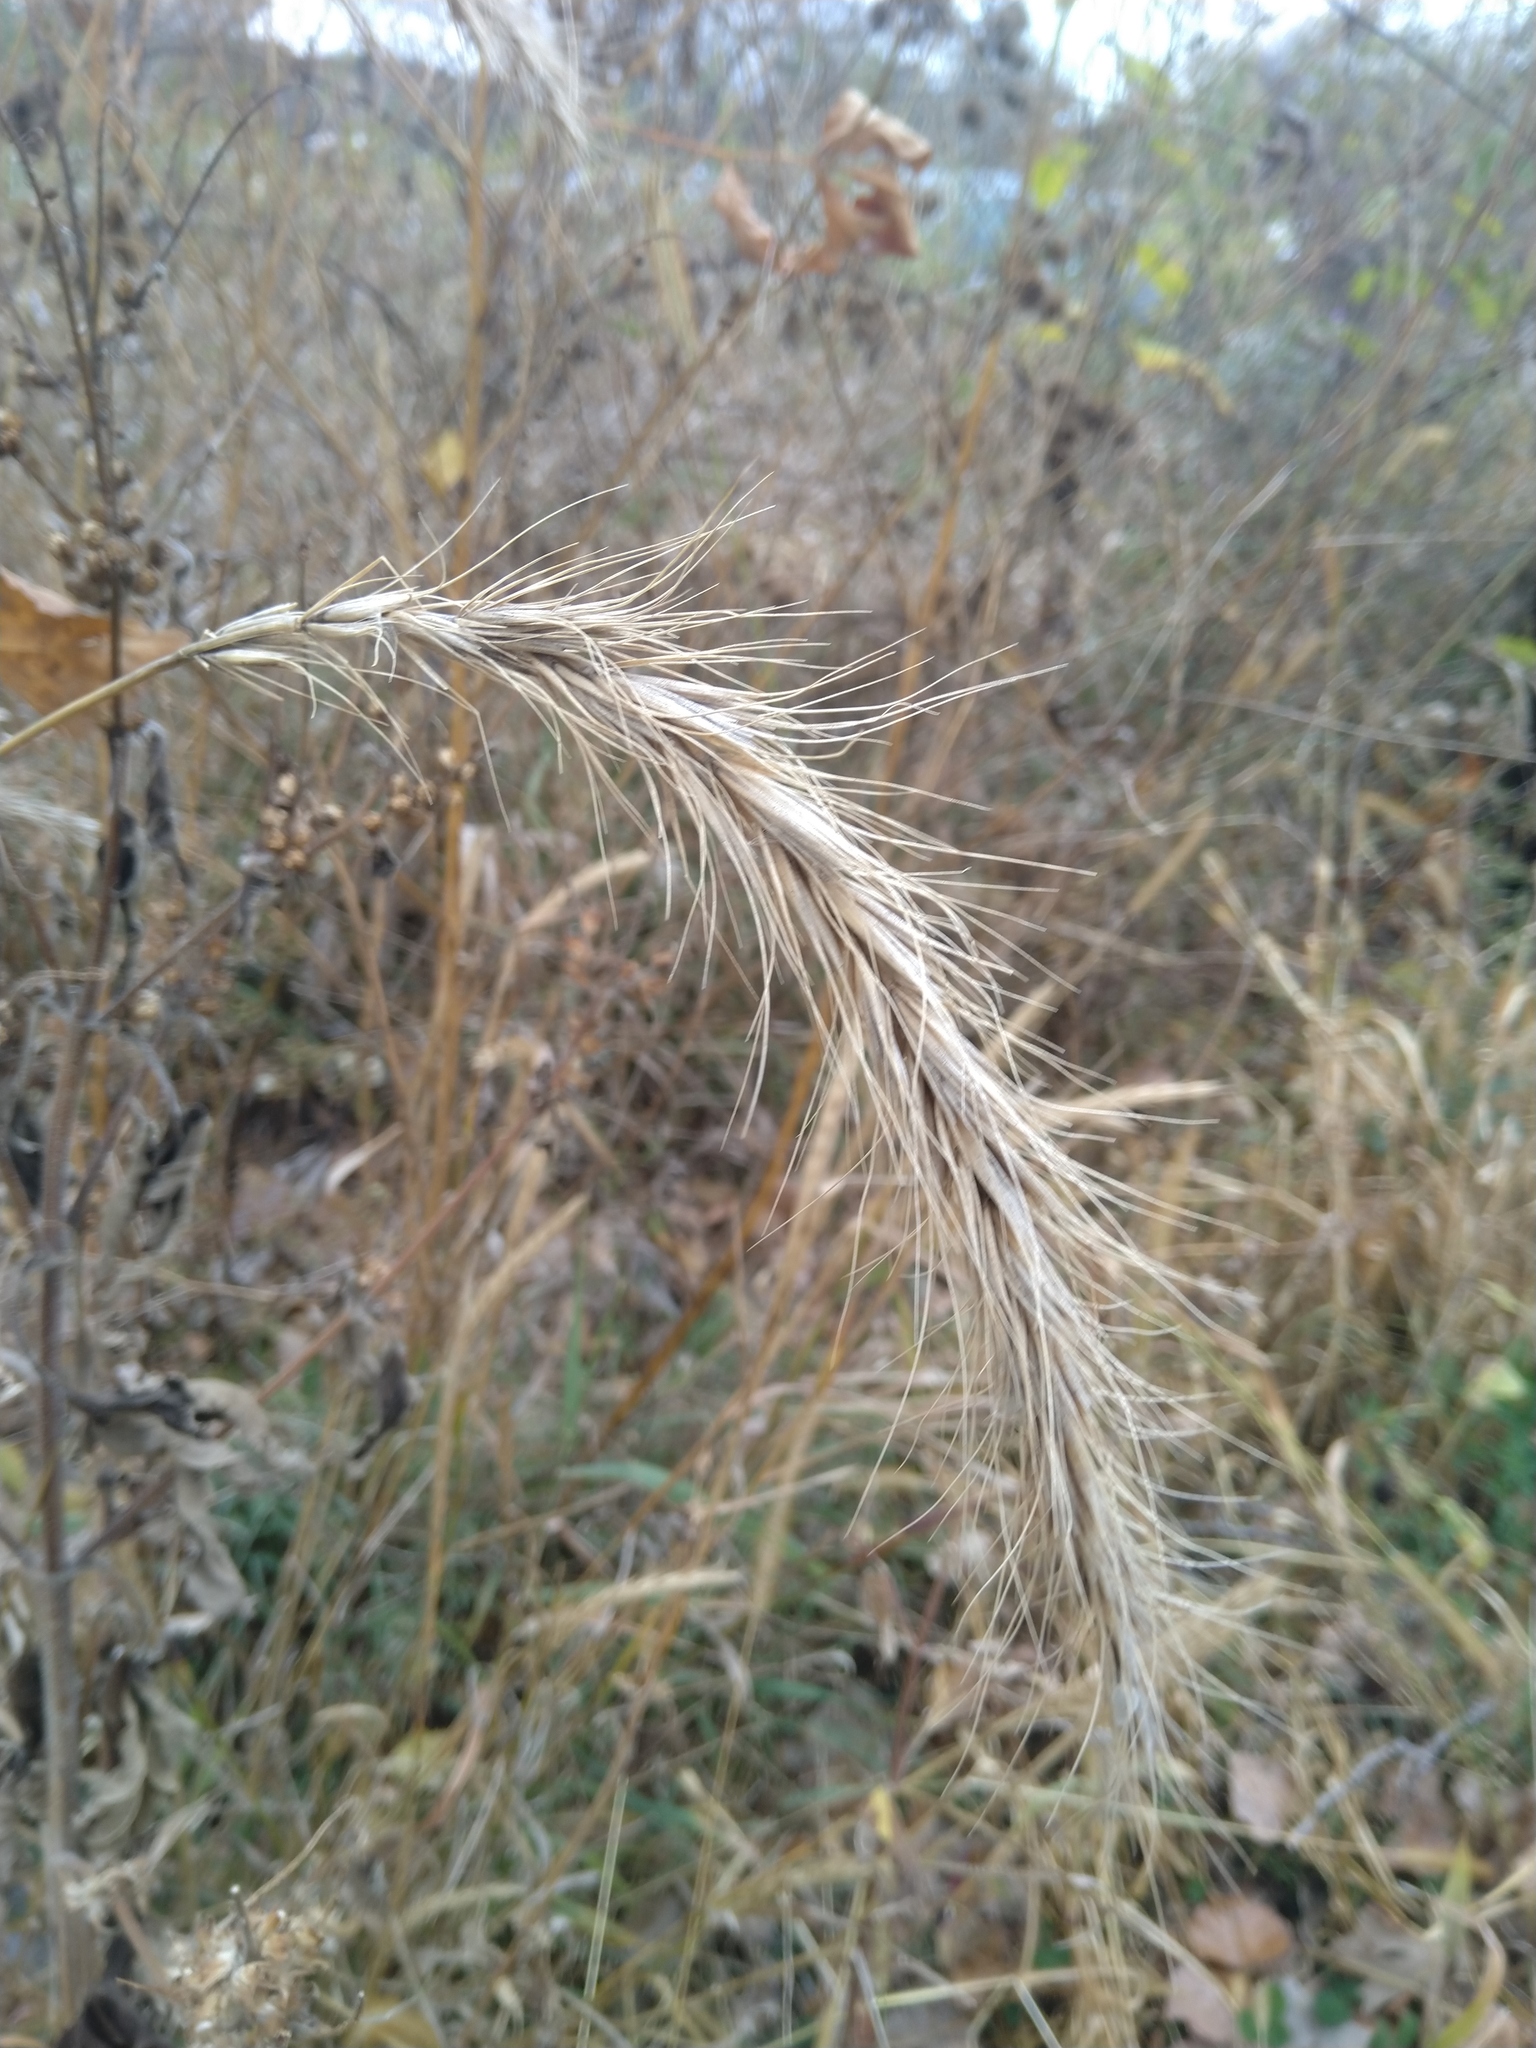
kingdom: Plantae
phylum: Tracheophyta
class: Liliopsida
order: Poales
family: Poaceae
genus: Elymus
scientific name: Elymus canadensis
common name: Canada wild rye
